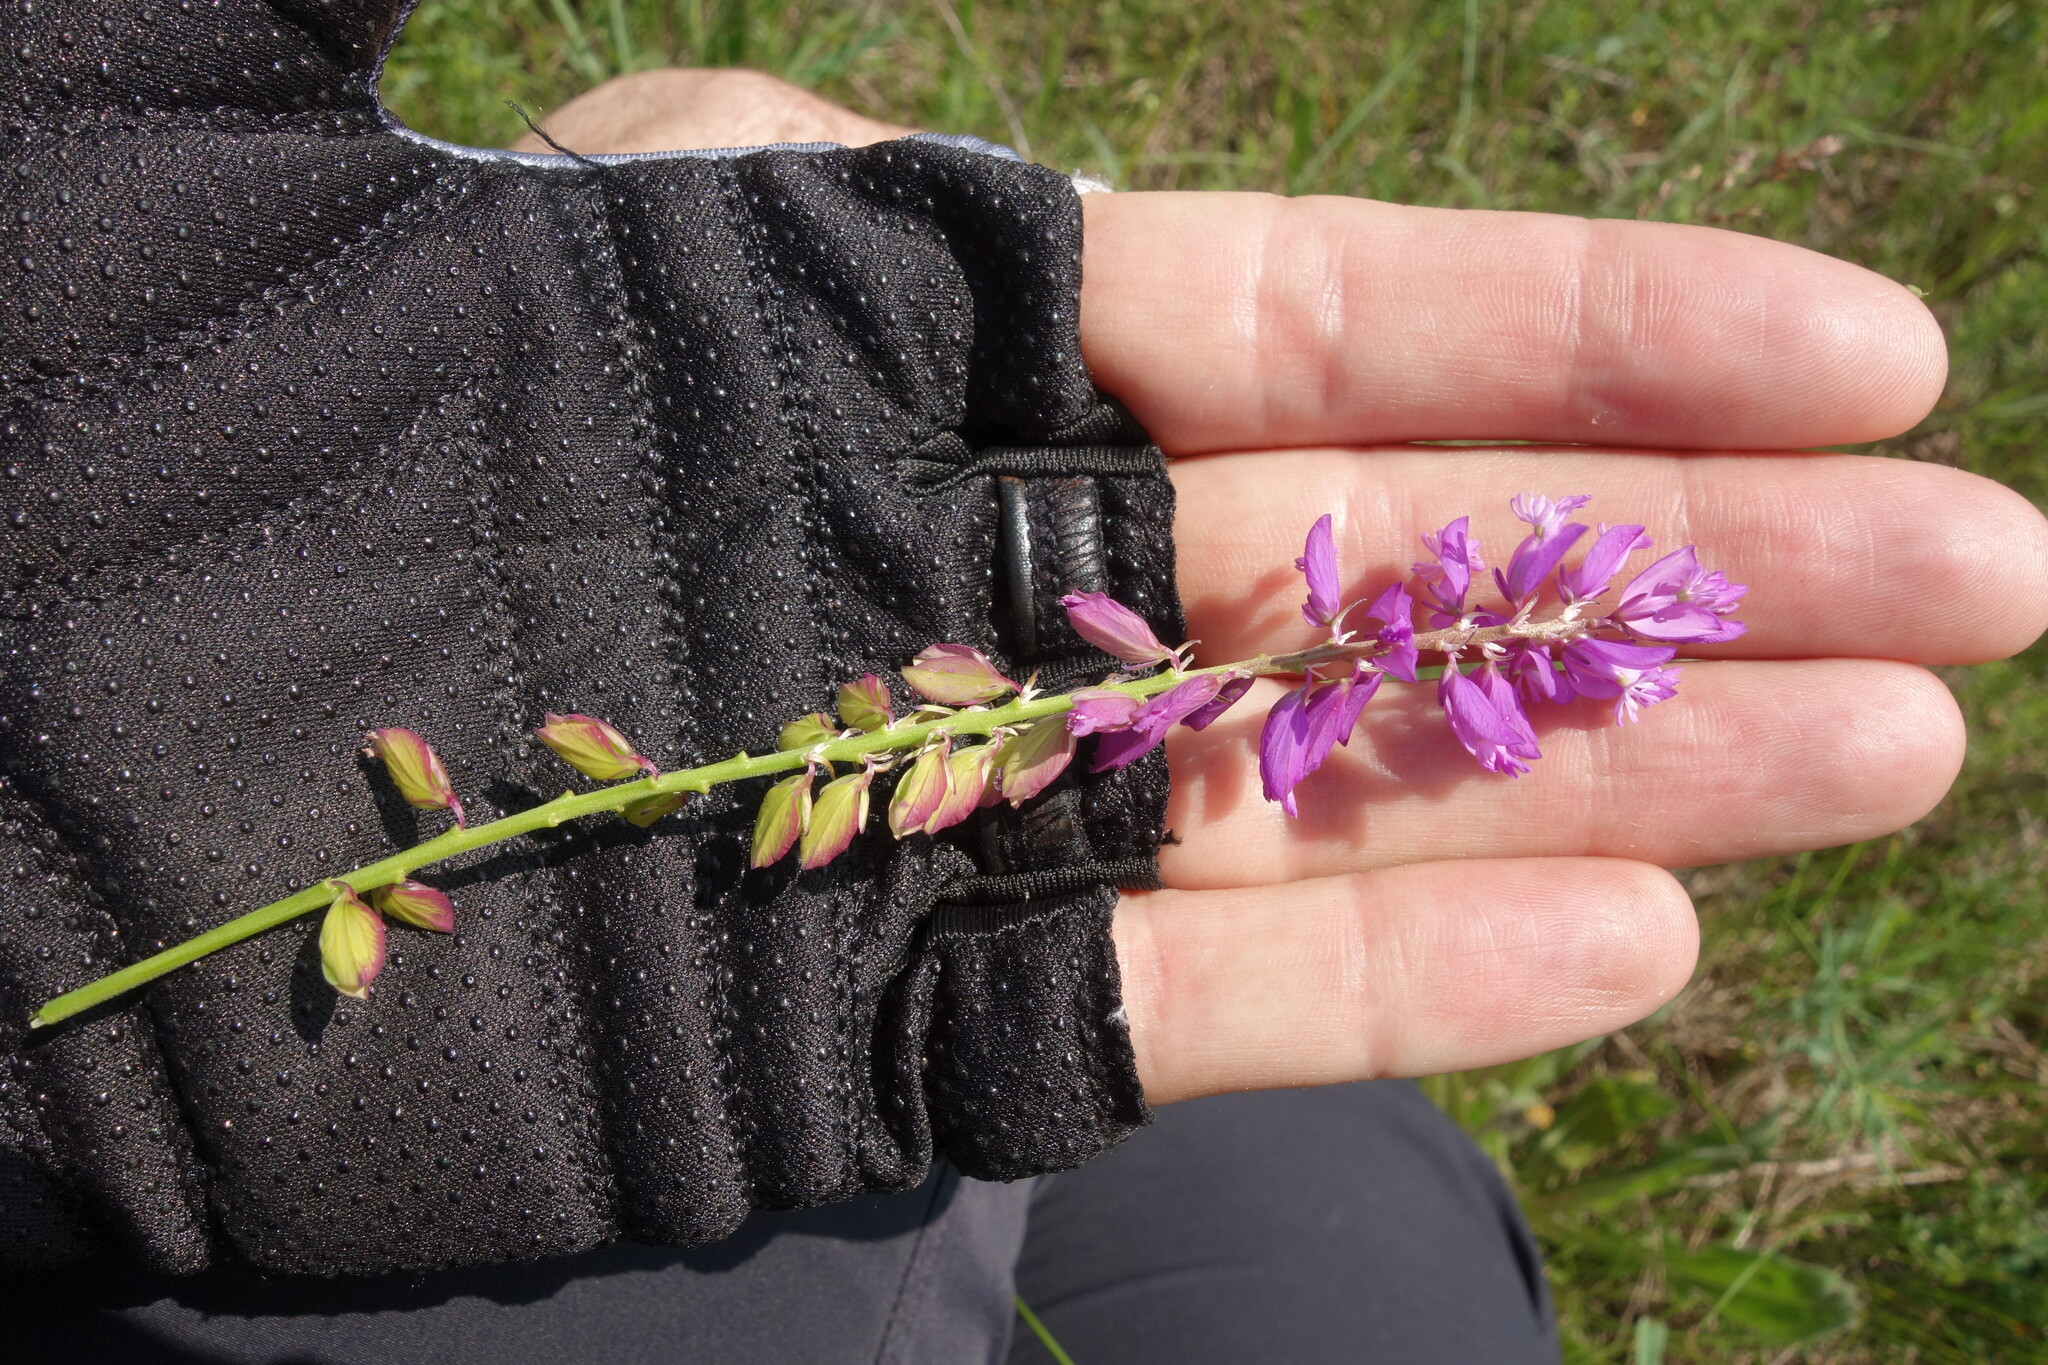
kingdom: Plantae
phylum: Tracheophyta
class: Magnoliopsida
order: Fabales
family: Polygalaceae
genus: Polygala
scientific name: Polygala nicaeensis
